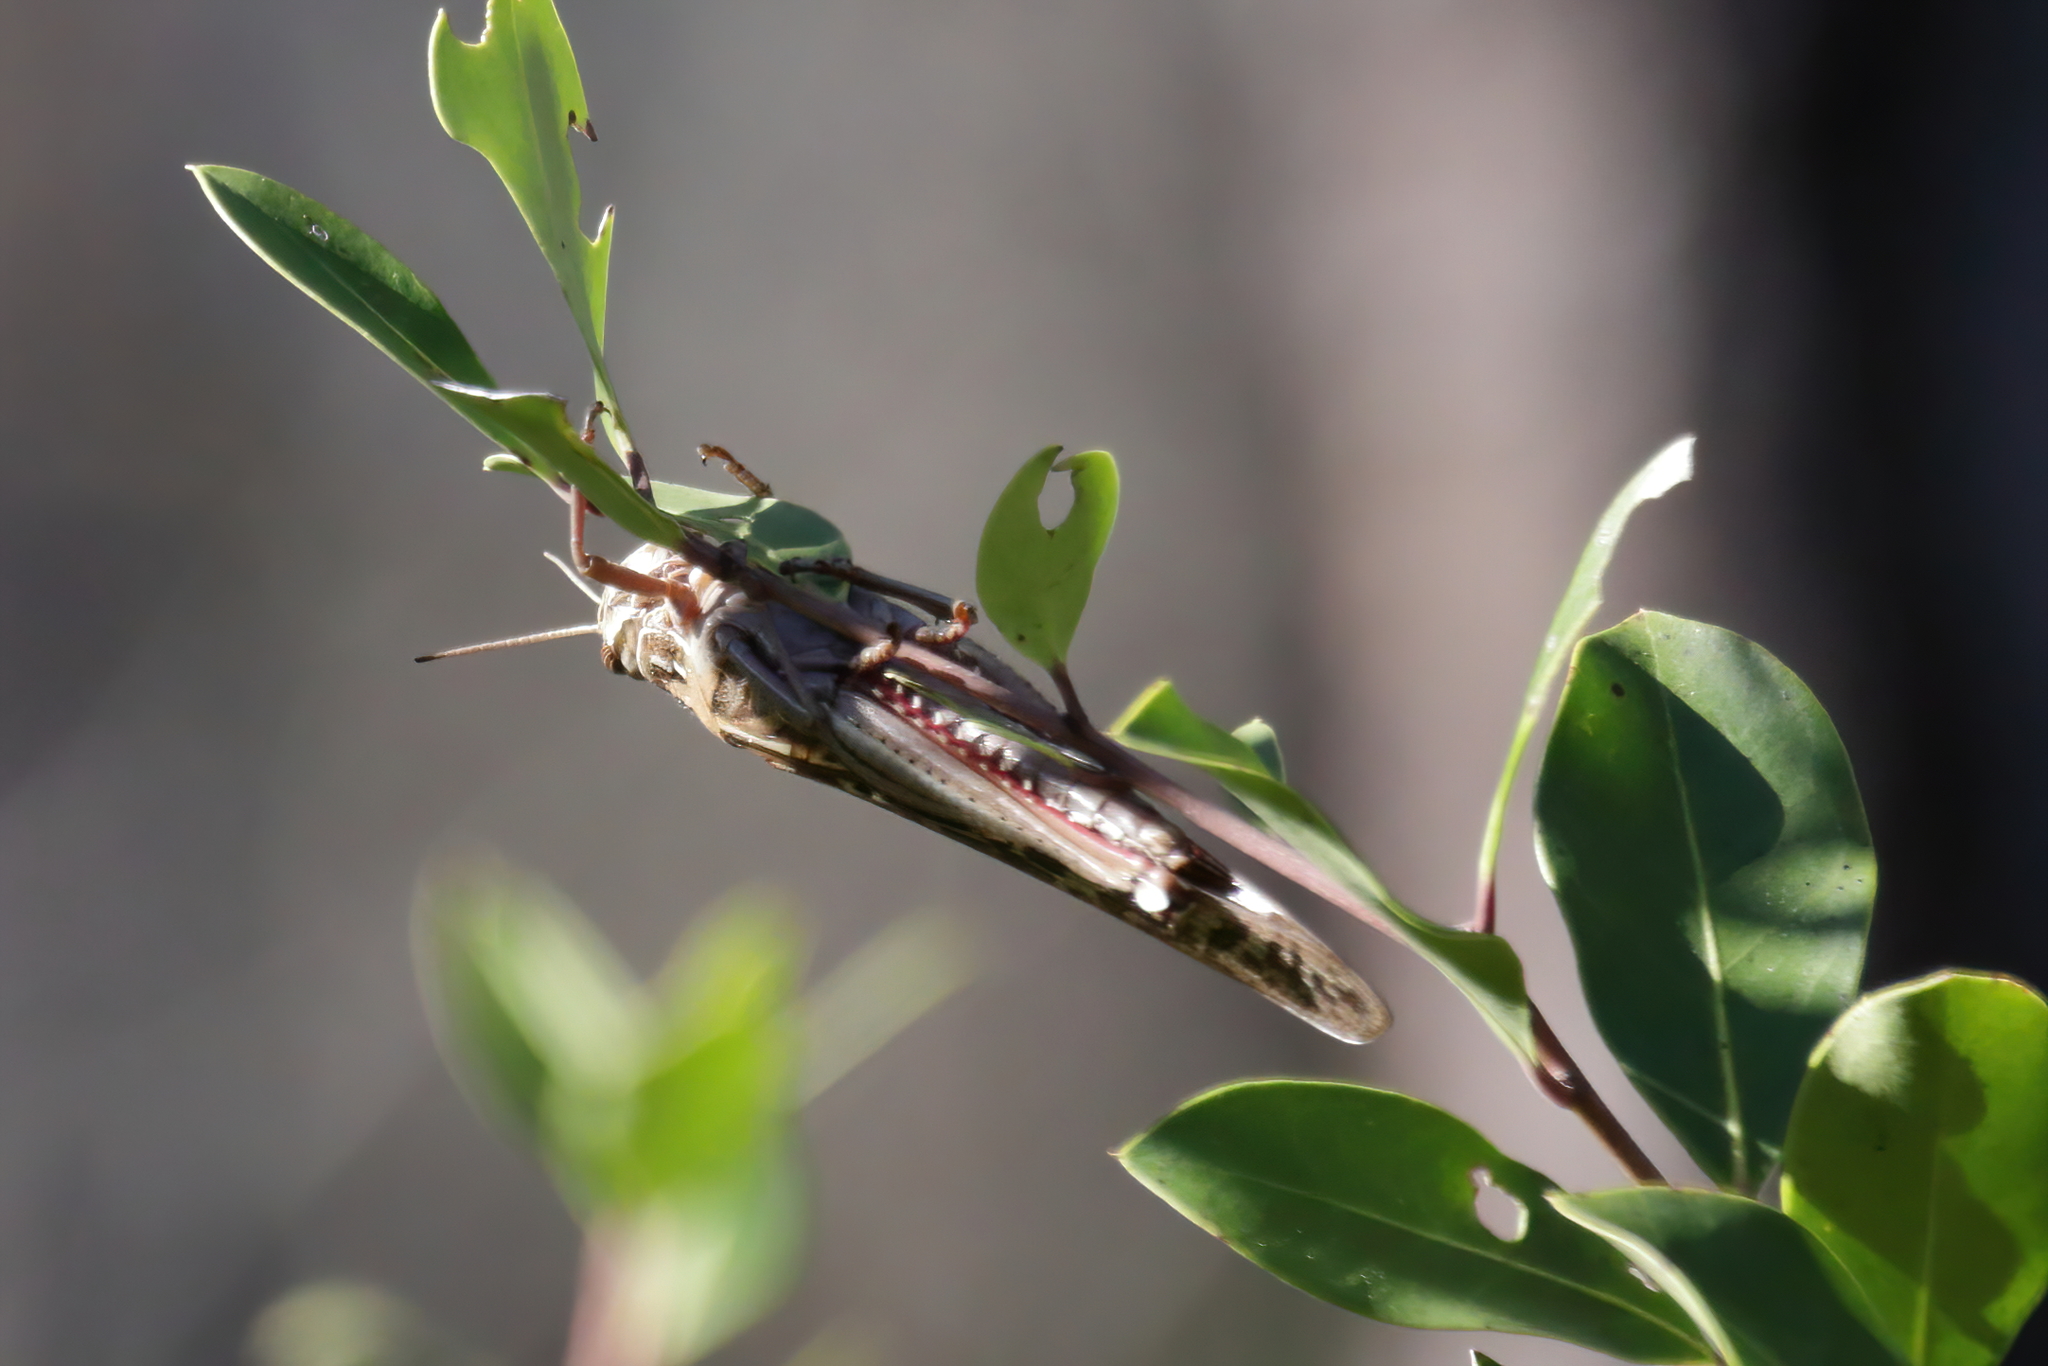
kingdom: Animalia
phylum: Arthropoda
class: Insecta
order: Orthoptera
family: Acrididae
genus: Schistocerca
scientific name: Schistocerca americana
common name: American bird locust
